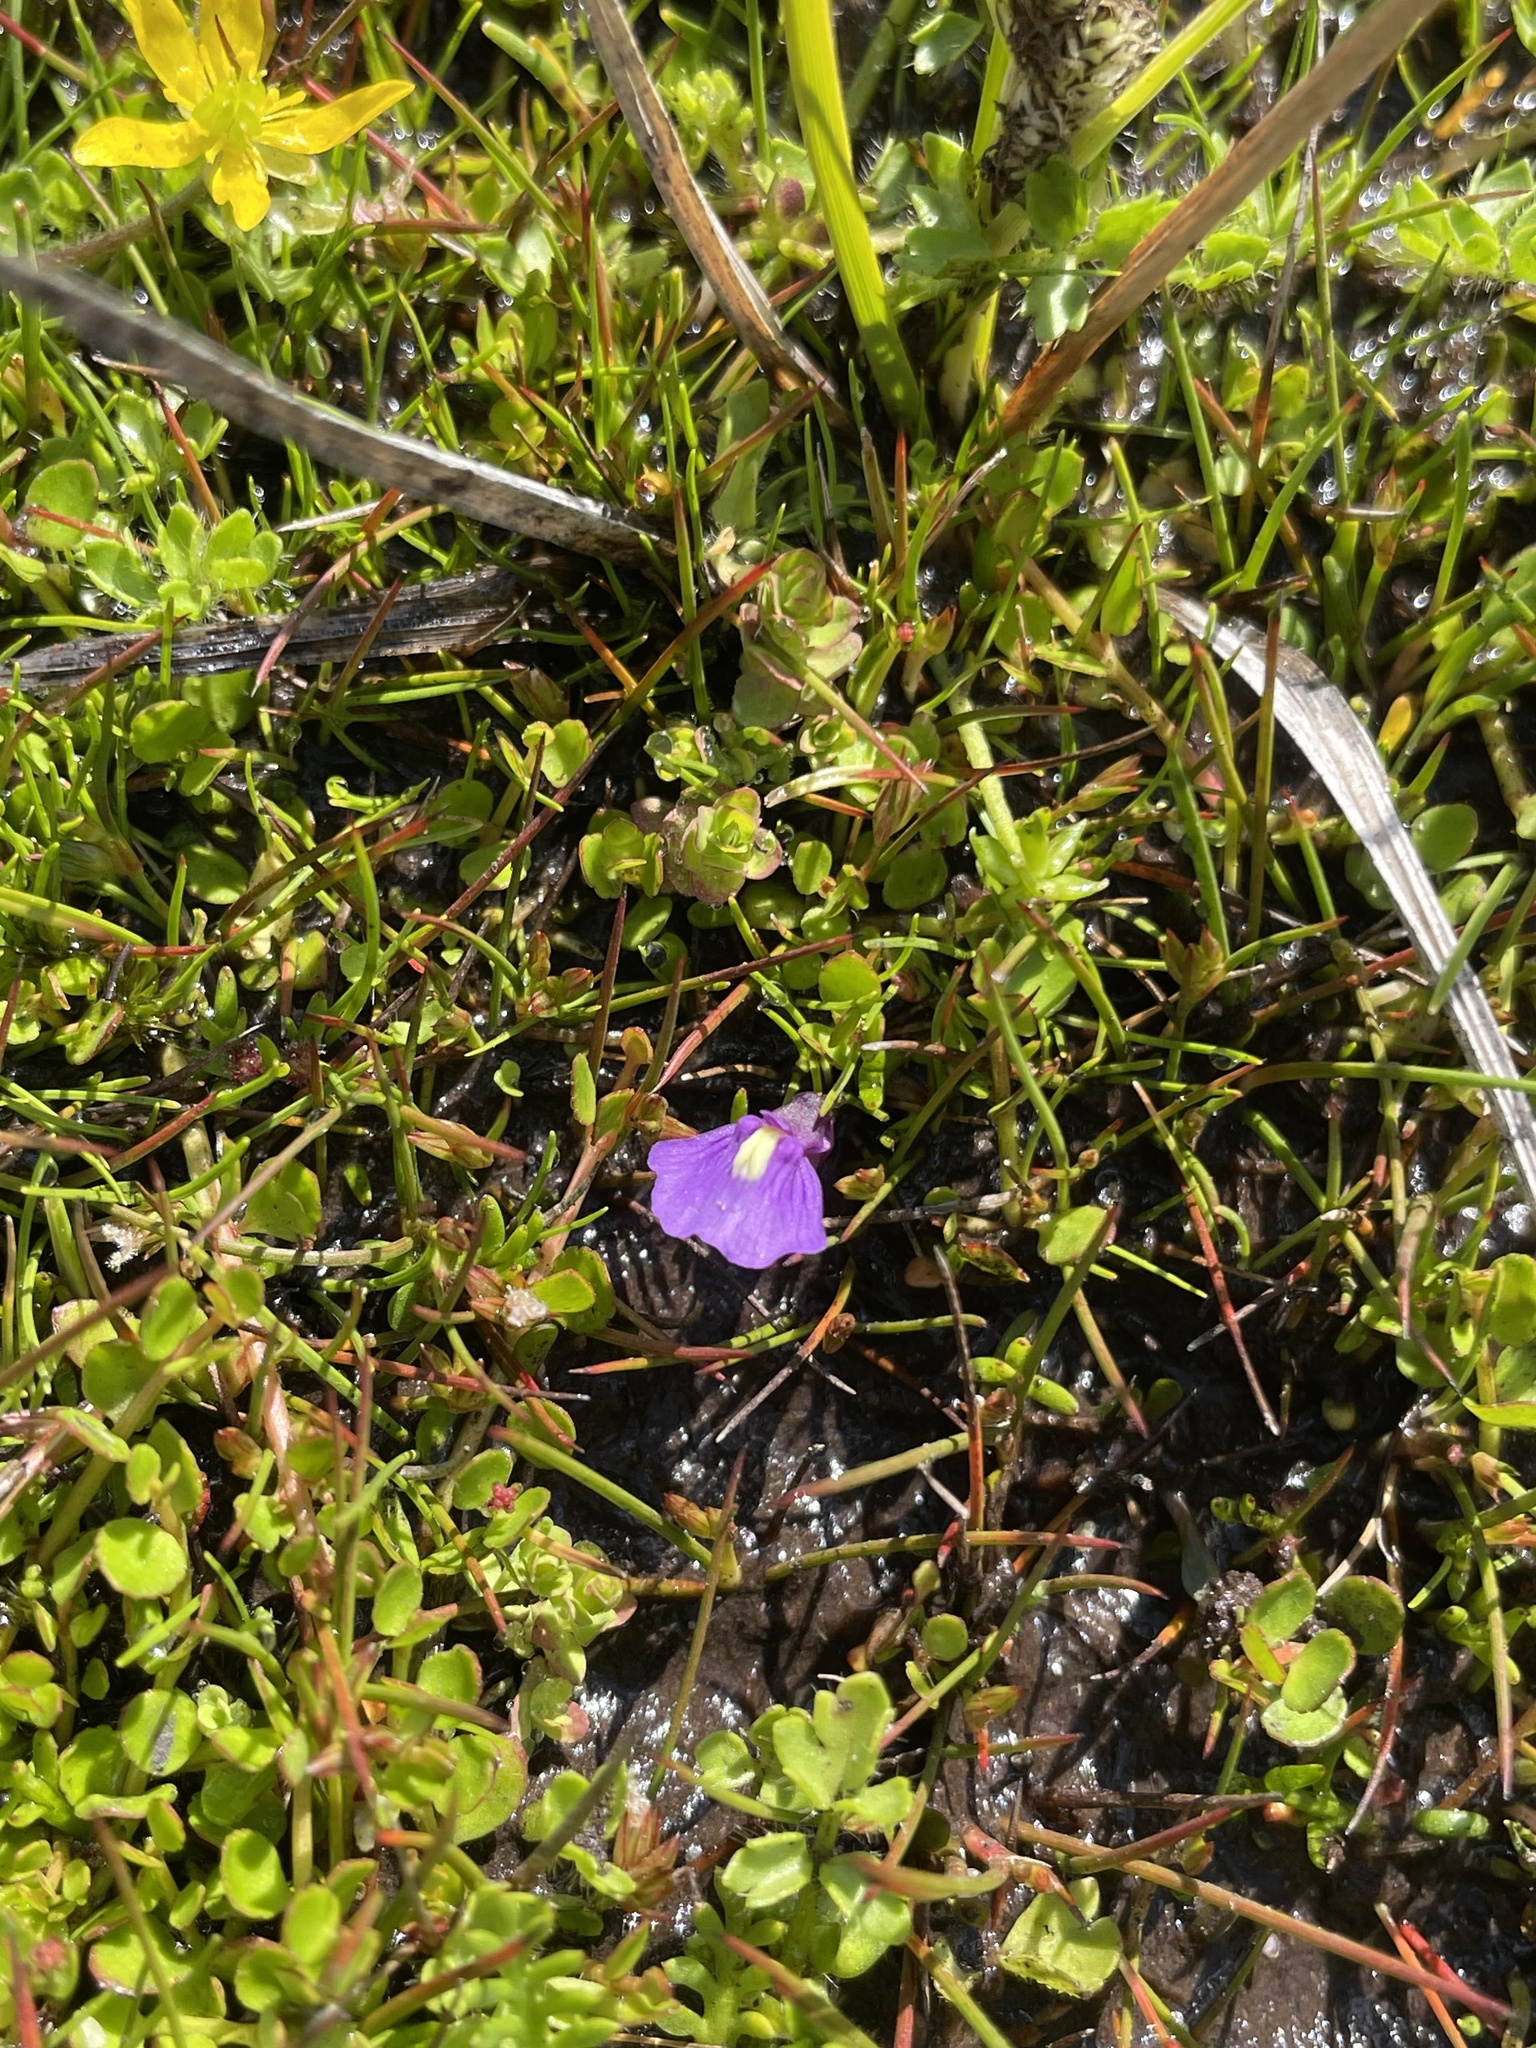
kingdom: Plantae
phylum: Tracheophyta
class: Magnoliopsida
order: Lamiales
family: Lentibulariaceae
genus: Utricularia
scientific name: Utricularia dichotoma
